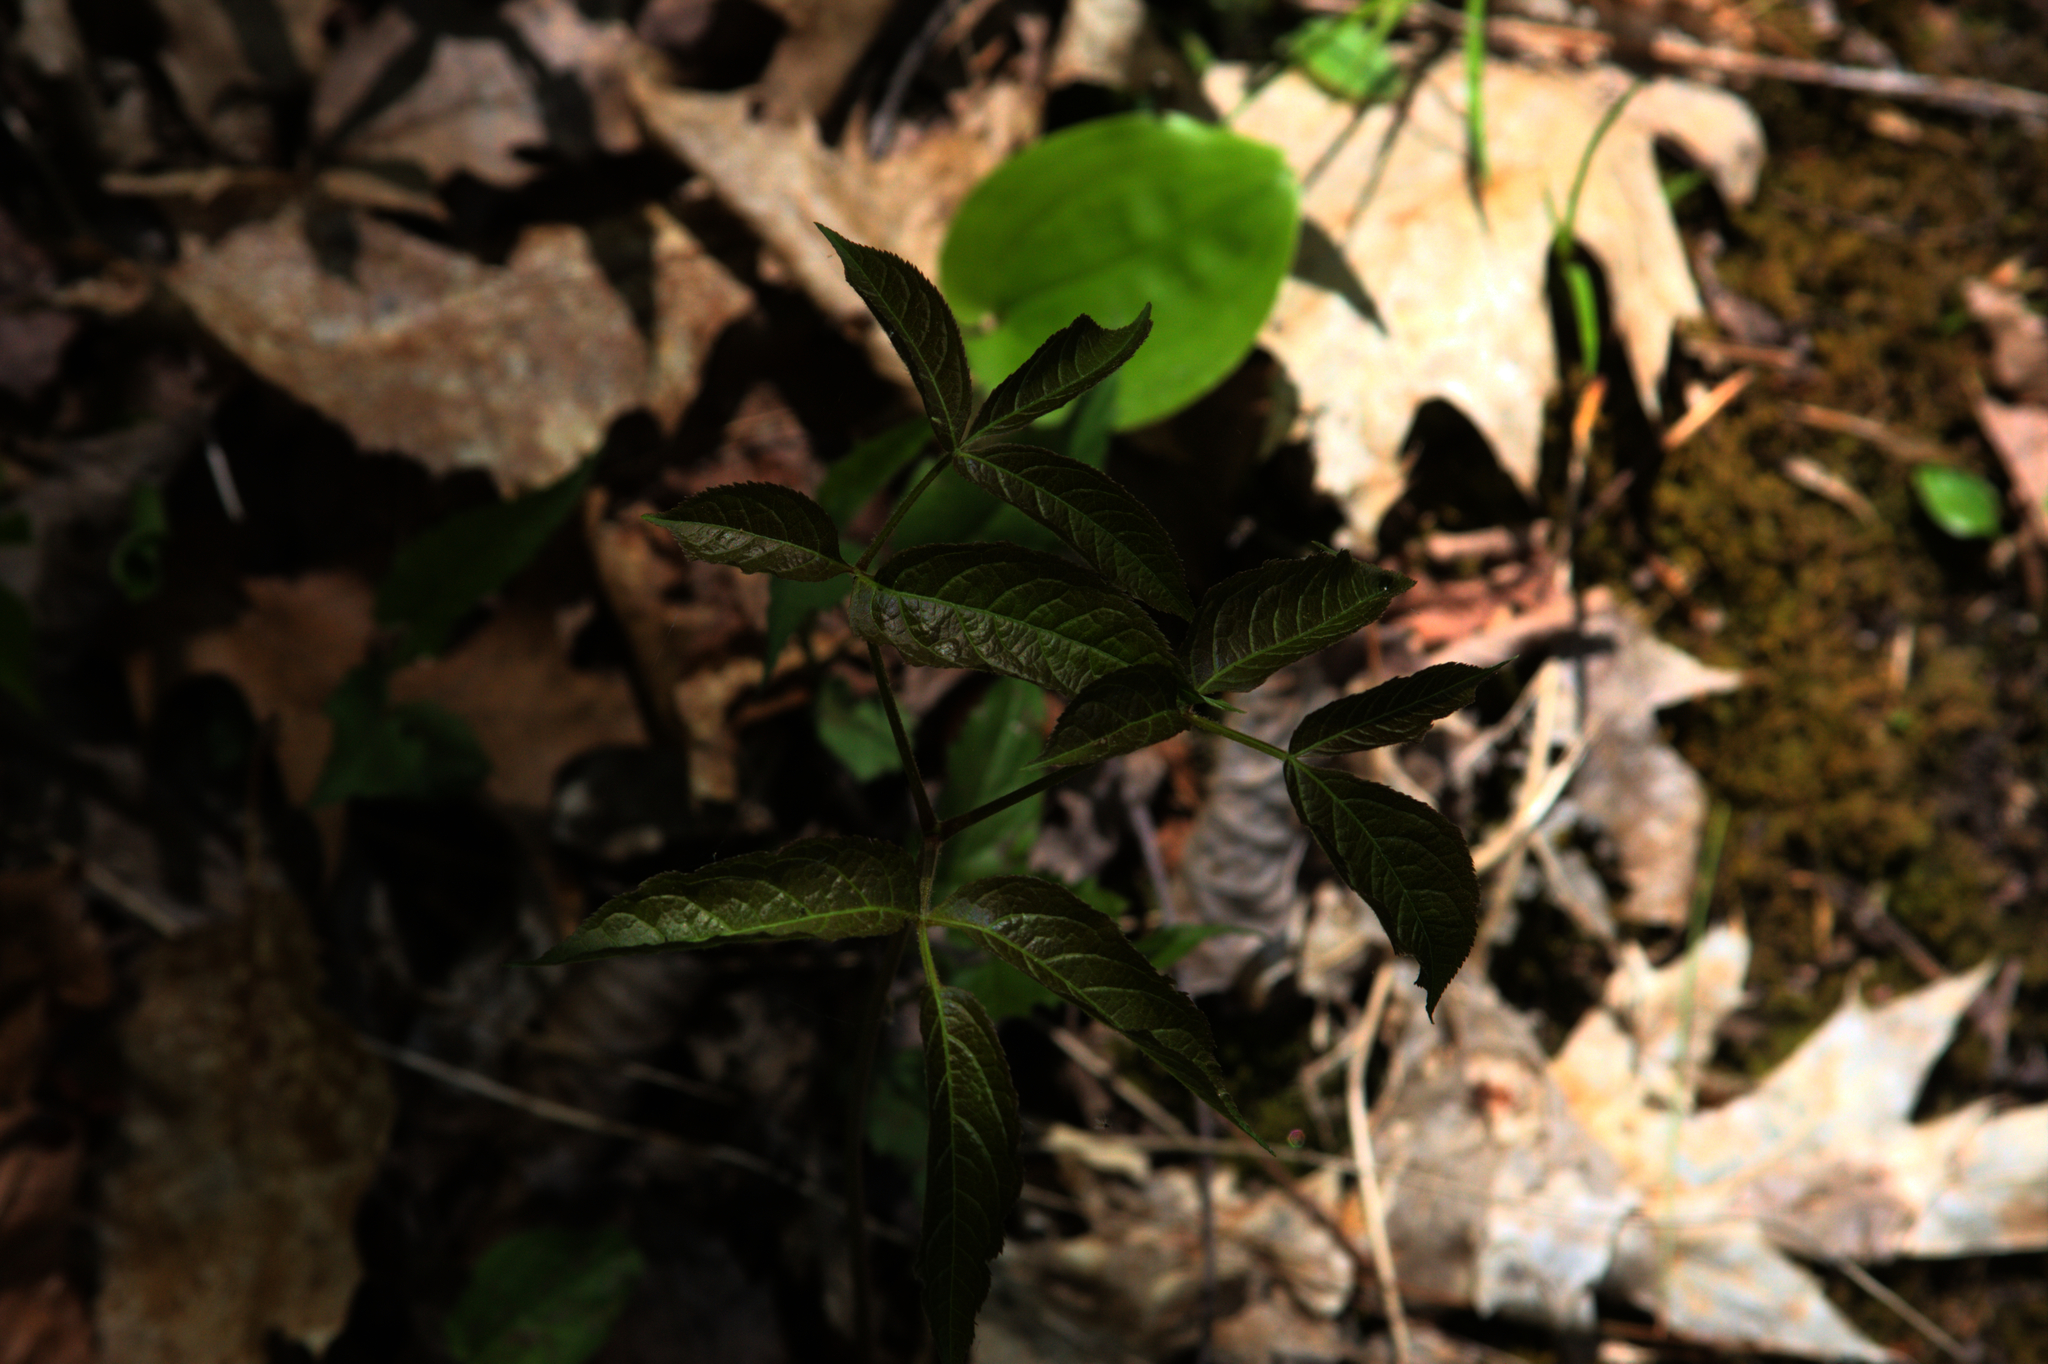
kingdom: Plantae
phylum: Tracheophyta
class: Magnoliopsida
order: Apiales
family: Araliaceae
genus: Aralia
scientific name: Aralia nudicaulis
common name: Wild sarsaparilla
